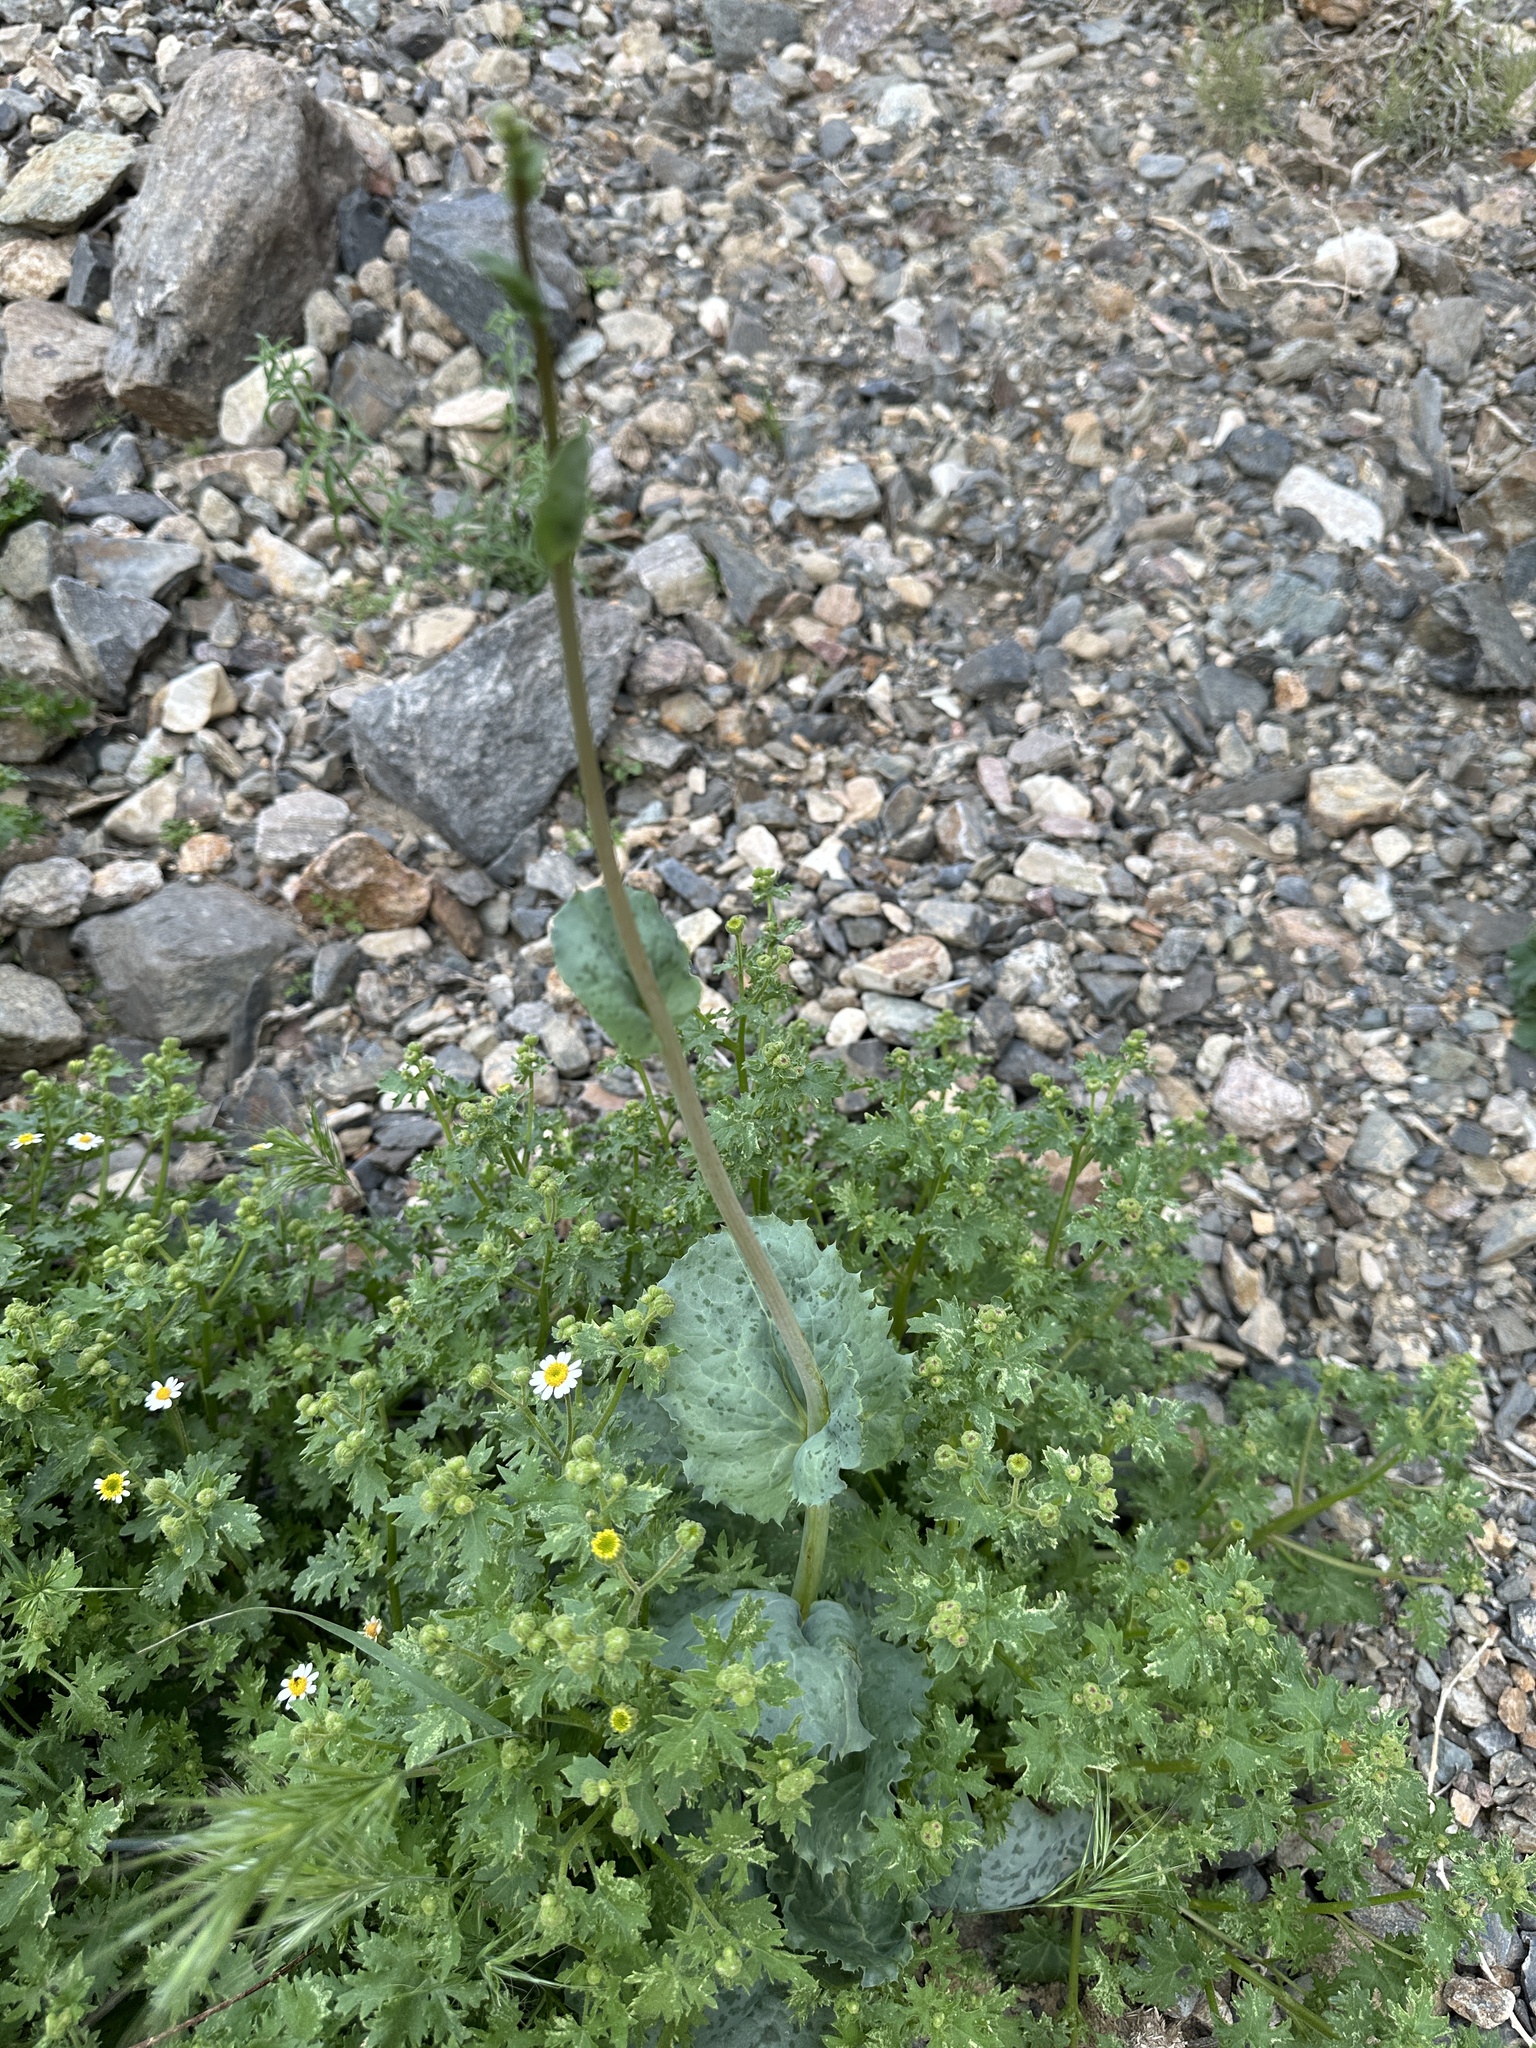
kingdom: Plantae
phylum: Tracheophyta
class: Magnoliopsida
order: Asterales
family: Asteraceae
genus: Atrichoseris
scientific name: Atrichoseris platyphylla
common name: Tobaccoweed
